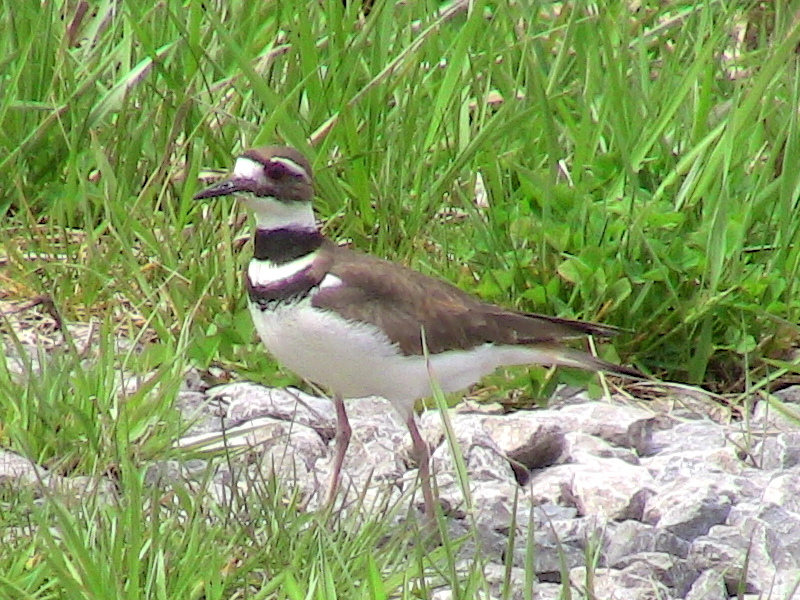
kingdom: Animalia
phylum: Chordata
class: Aves
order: Charadriiformes
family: Charadriidae
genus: Charadrius
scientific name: Charadrius vociferus
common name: Killdeer
